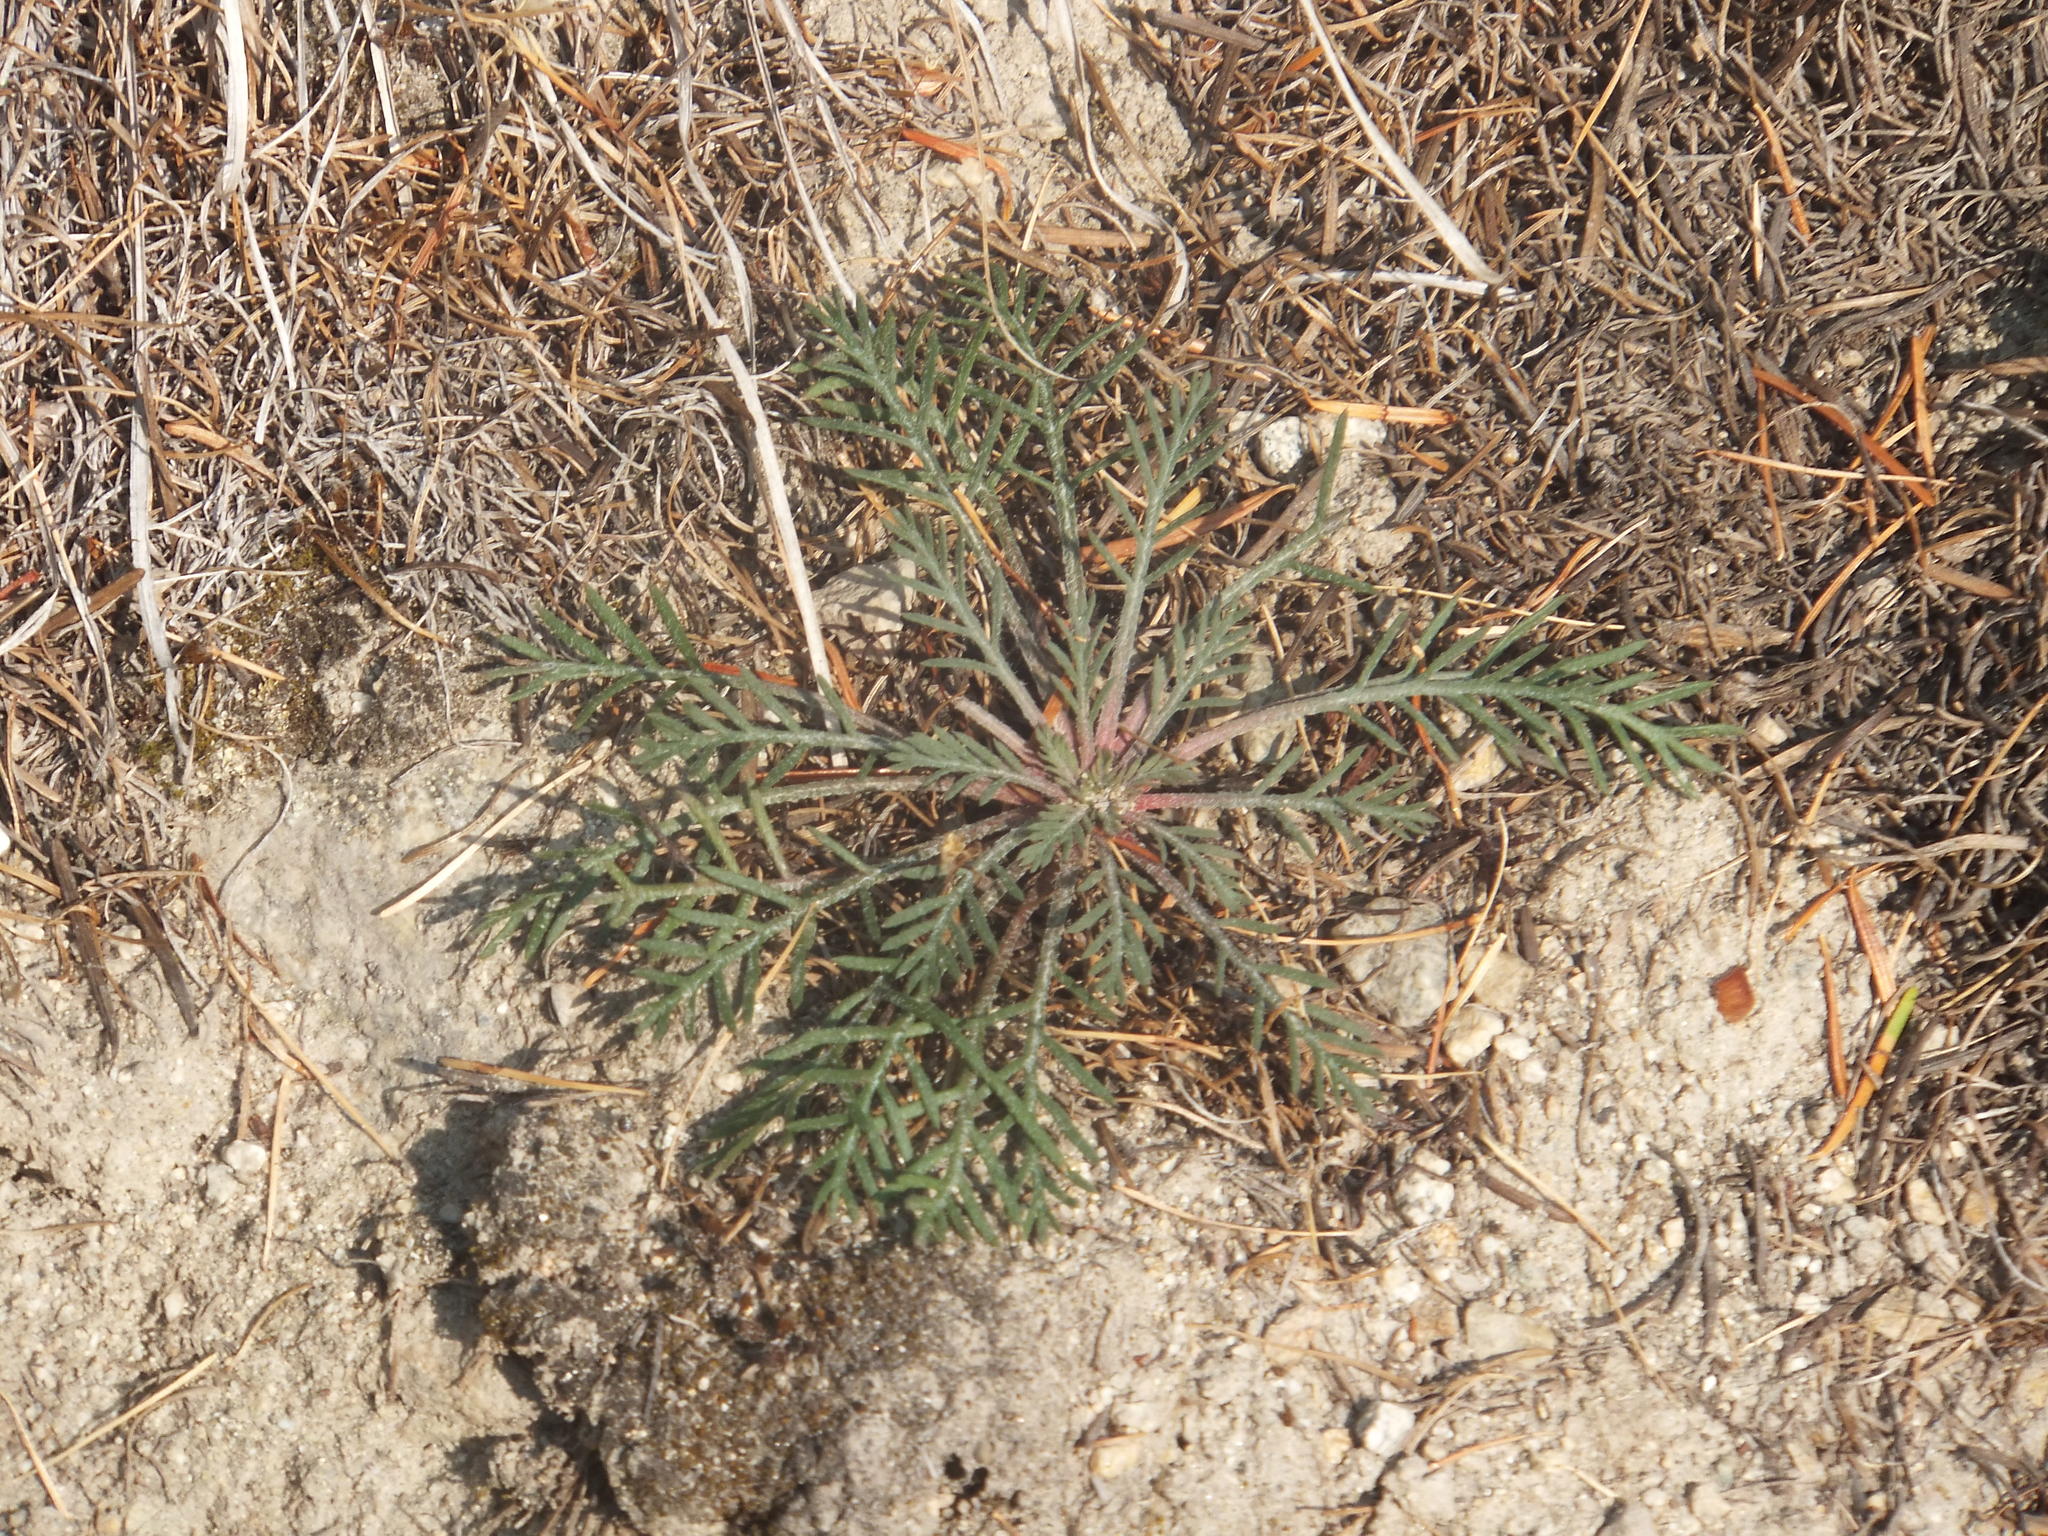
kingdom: Plantae
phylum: Tracheophyta
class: Magnoliopsida
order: Ericales
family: Polemoniaceae
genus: Ipomopsis
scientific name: Ipomopsis aggregata
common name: Scarlet gilia
